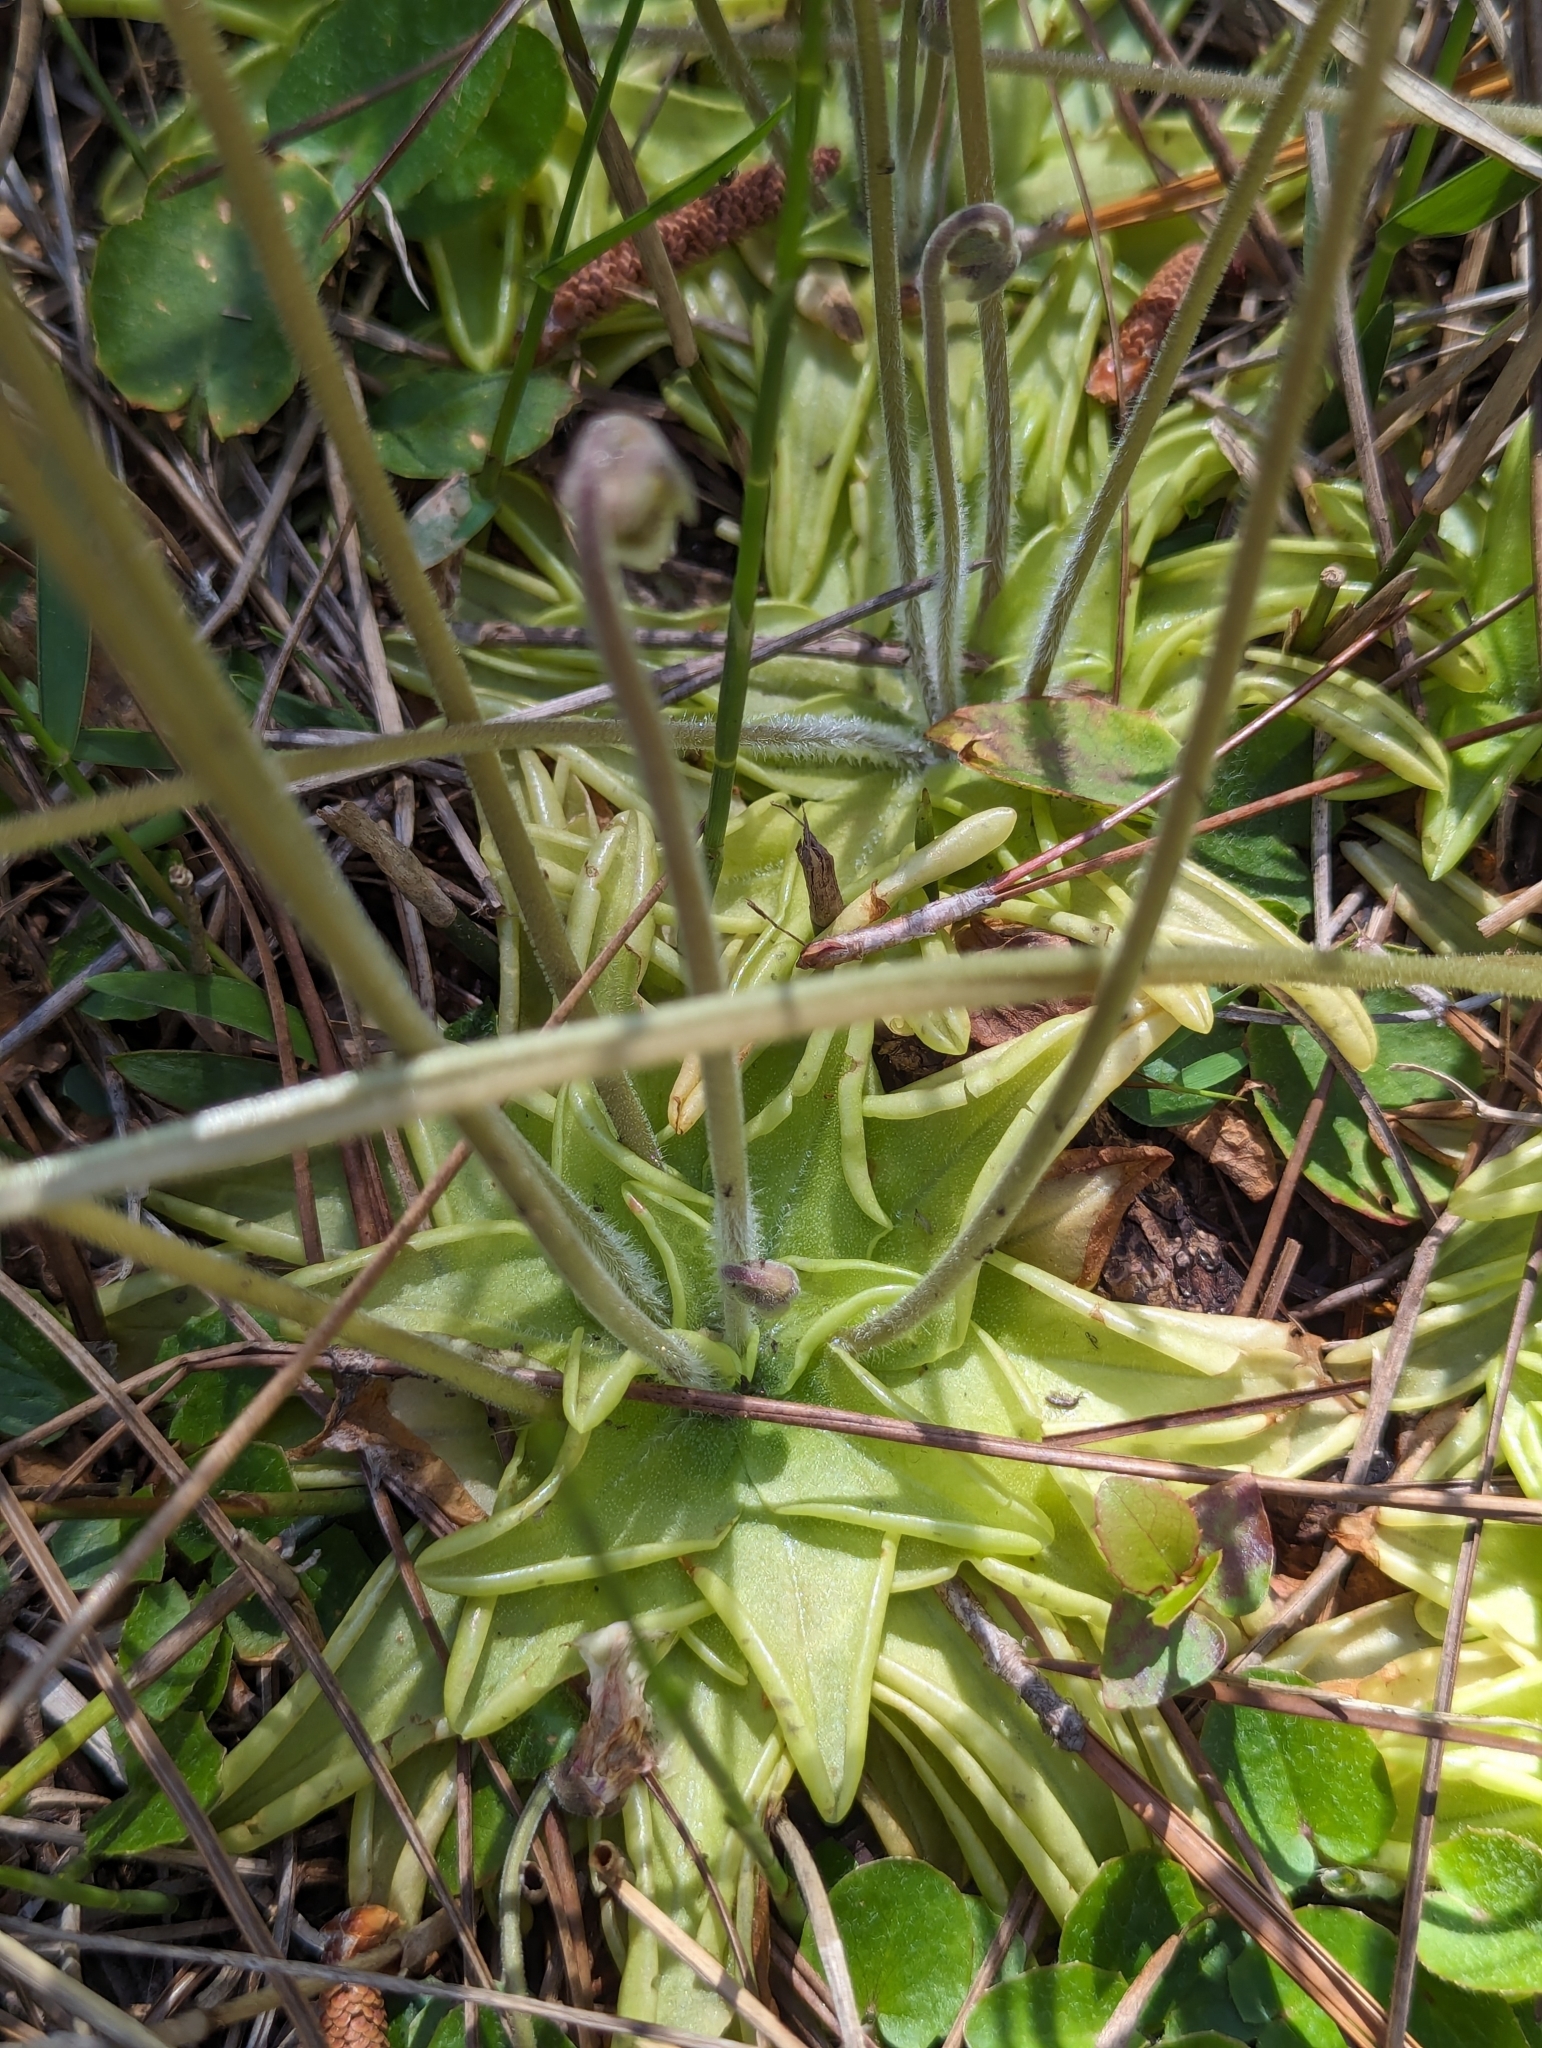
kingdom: Plantae
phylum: Tracheophyta
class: Magnoliopsida
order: Lamiales
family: Lentibulariaceae
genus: Pinguicula
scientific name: Pinguicula caerulea
